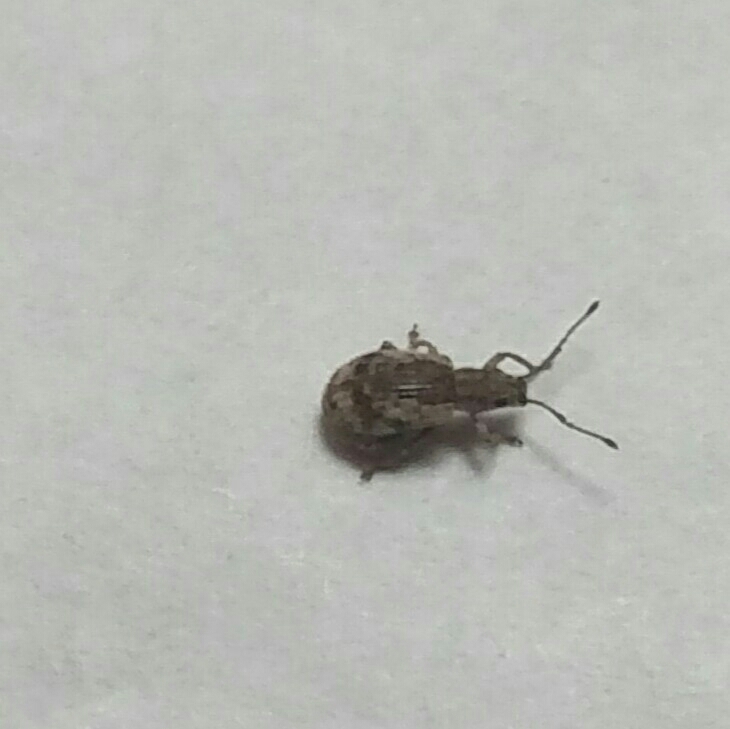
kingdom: Animalia
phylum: Arthropoda
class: Insecta
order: Coleoptera
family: Curculionidae
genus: Pseudoedophrys
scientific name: Pseudoedophrys hilleri
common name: Weevil
